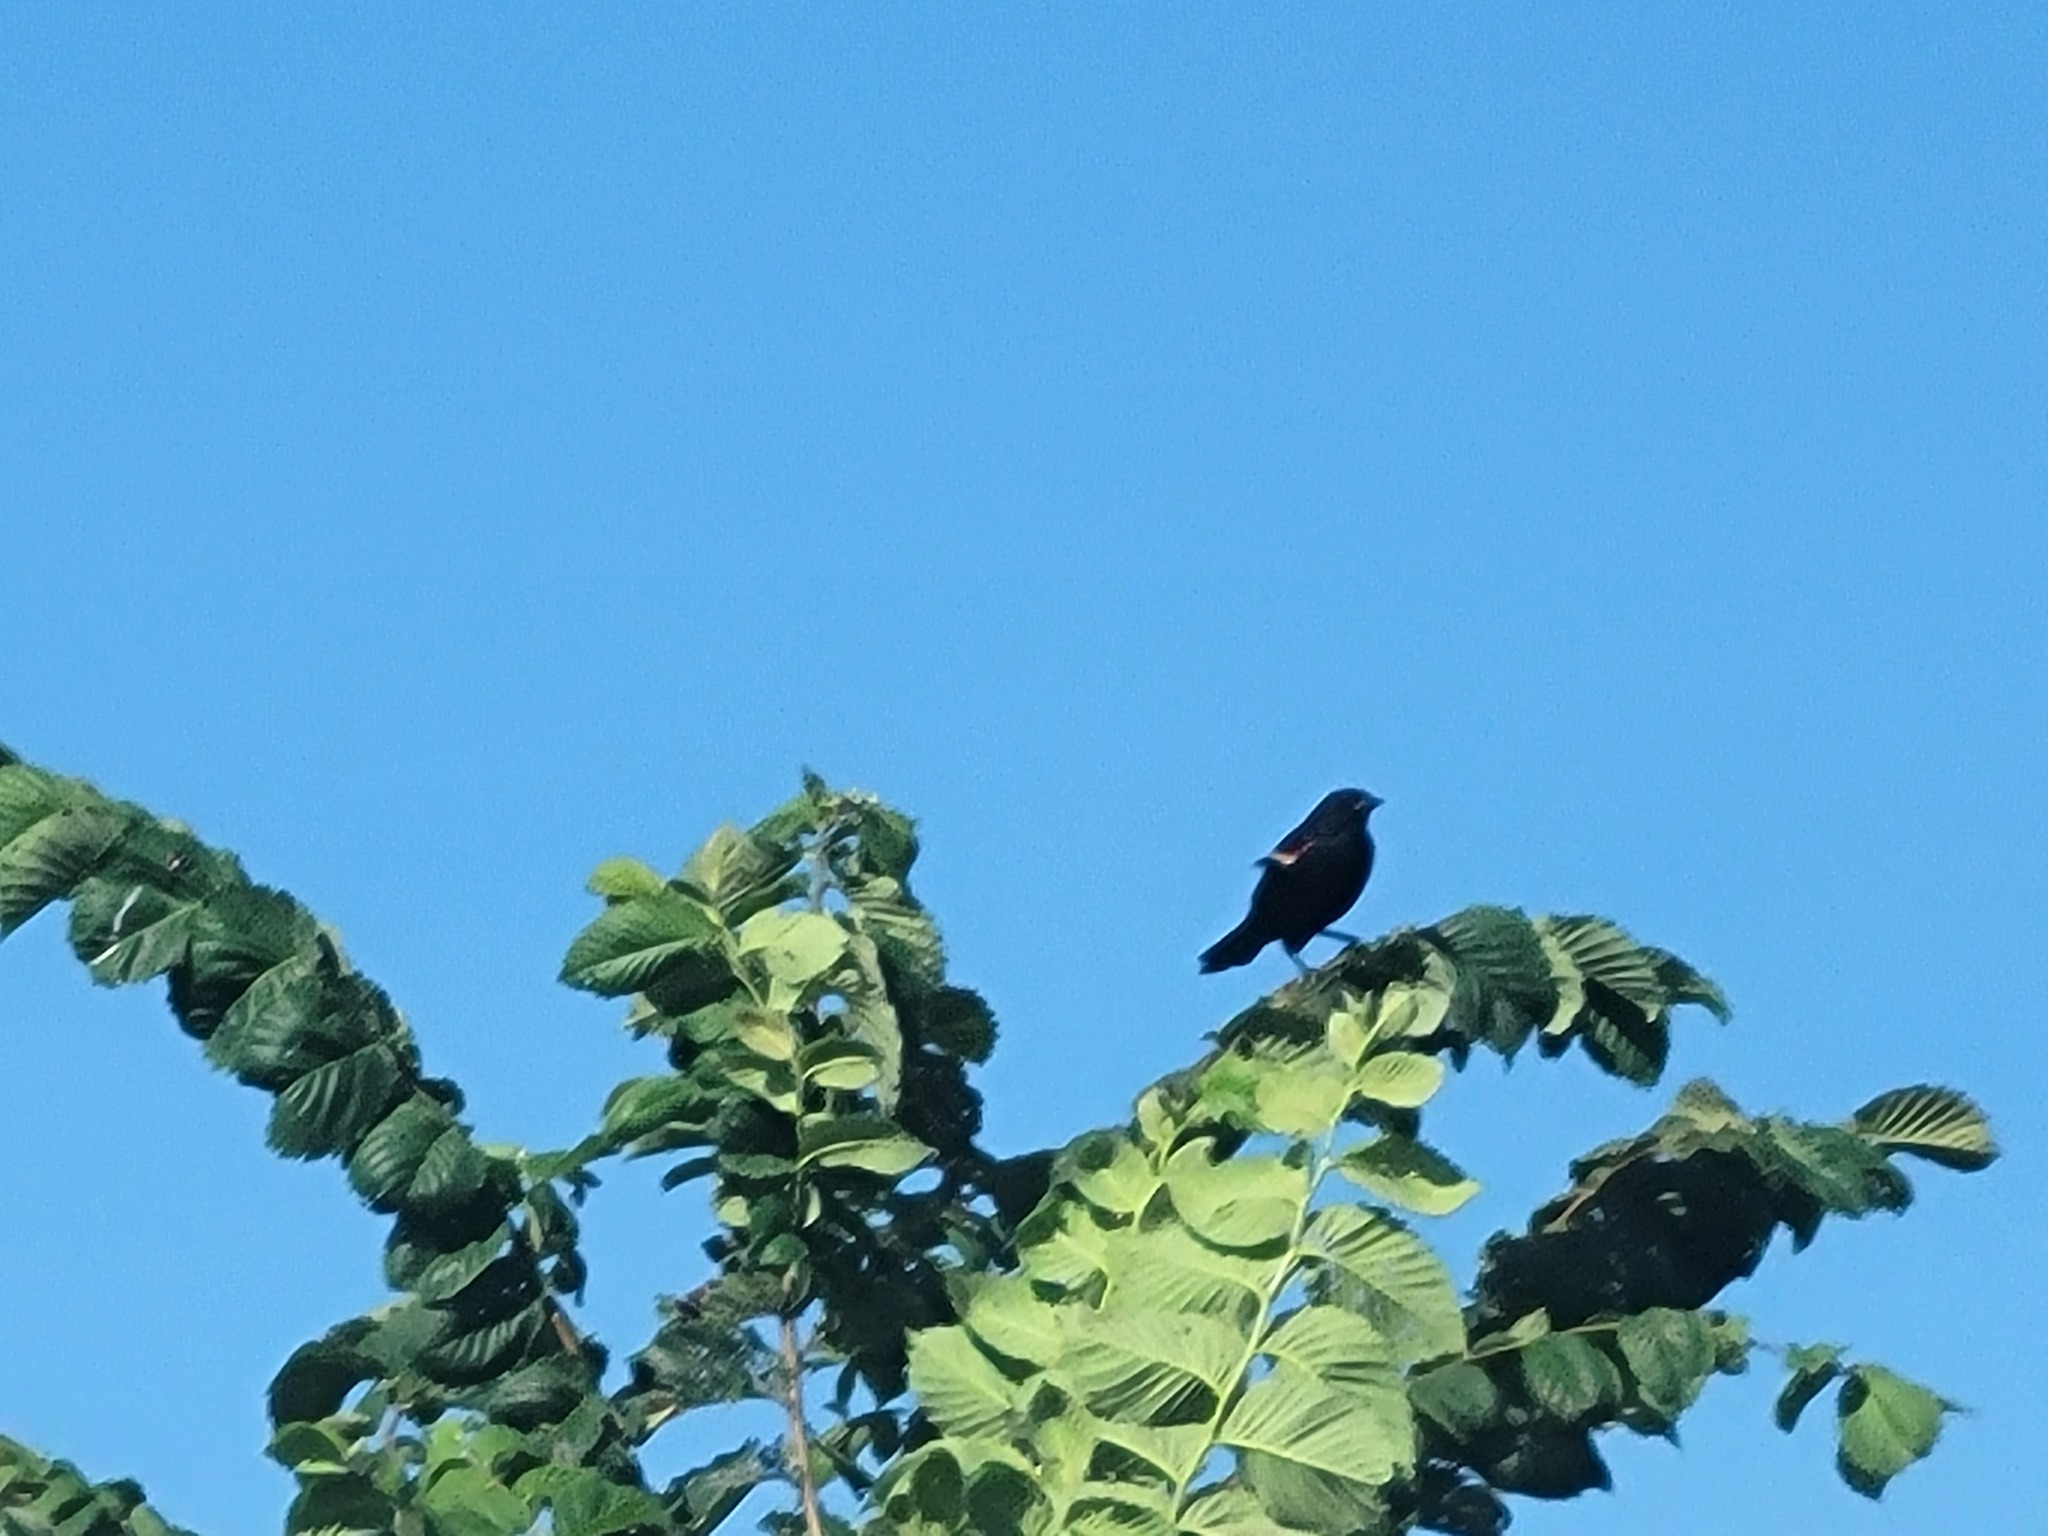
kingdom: Animalia
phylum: Chordata
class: Aves
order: Passeriformes
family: Icteridae
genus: Agelaius
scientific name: Agelaius phoeniceus
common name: Red-winged blackbird
